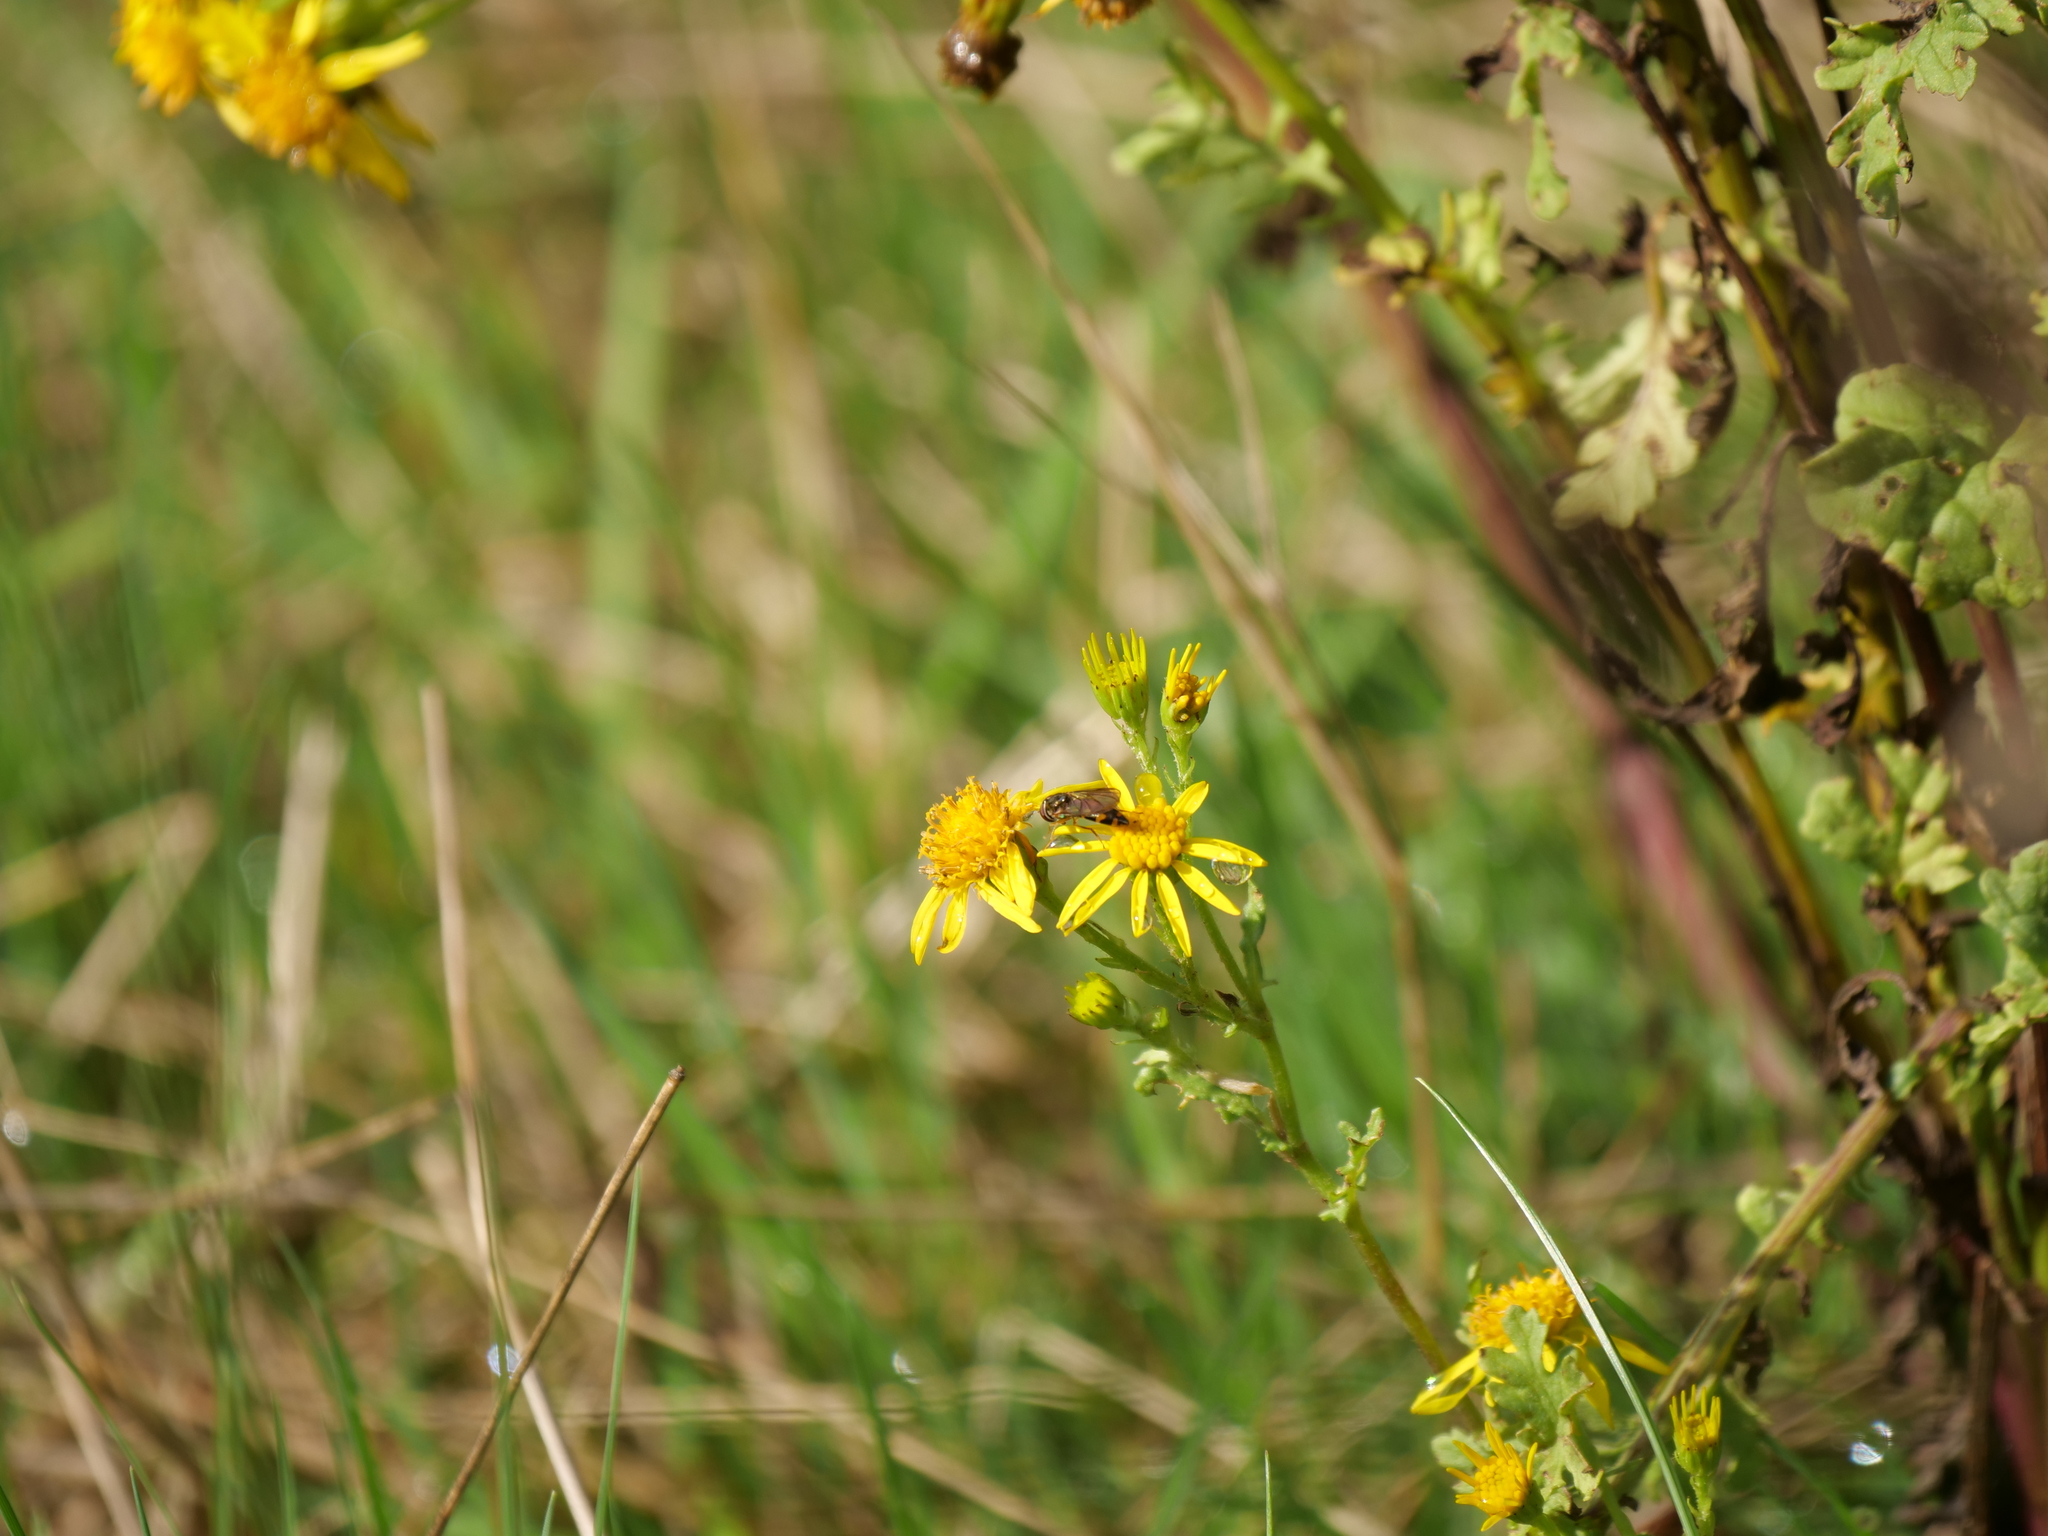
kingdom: Animalia
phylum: Arthropoda
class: Insecta
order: Diptera
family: Syrphidae
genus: Melanostoma
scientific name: Melanostoma mellina
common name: Hover fly
